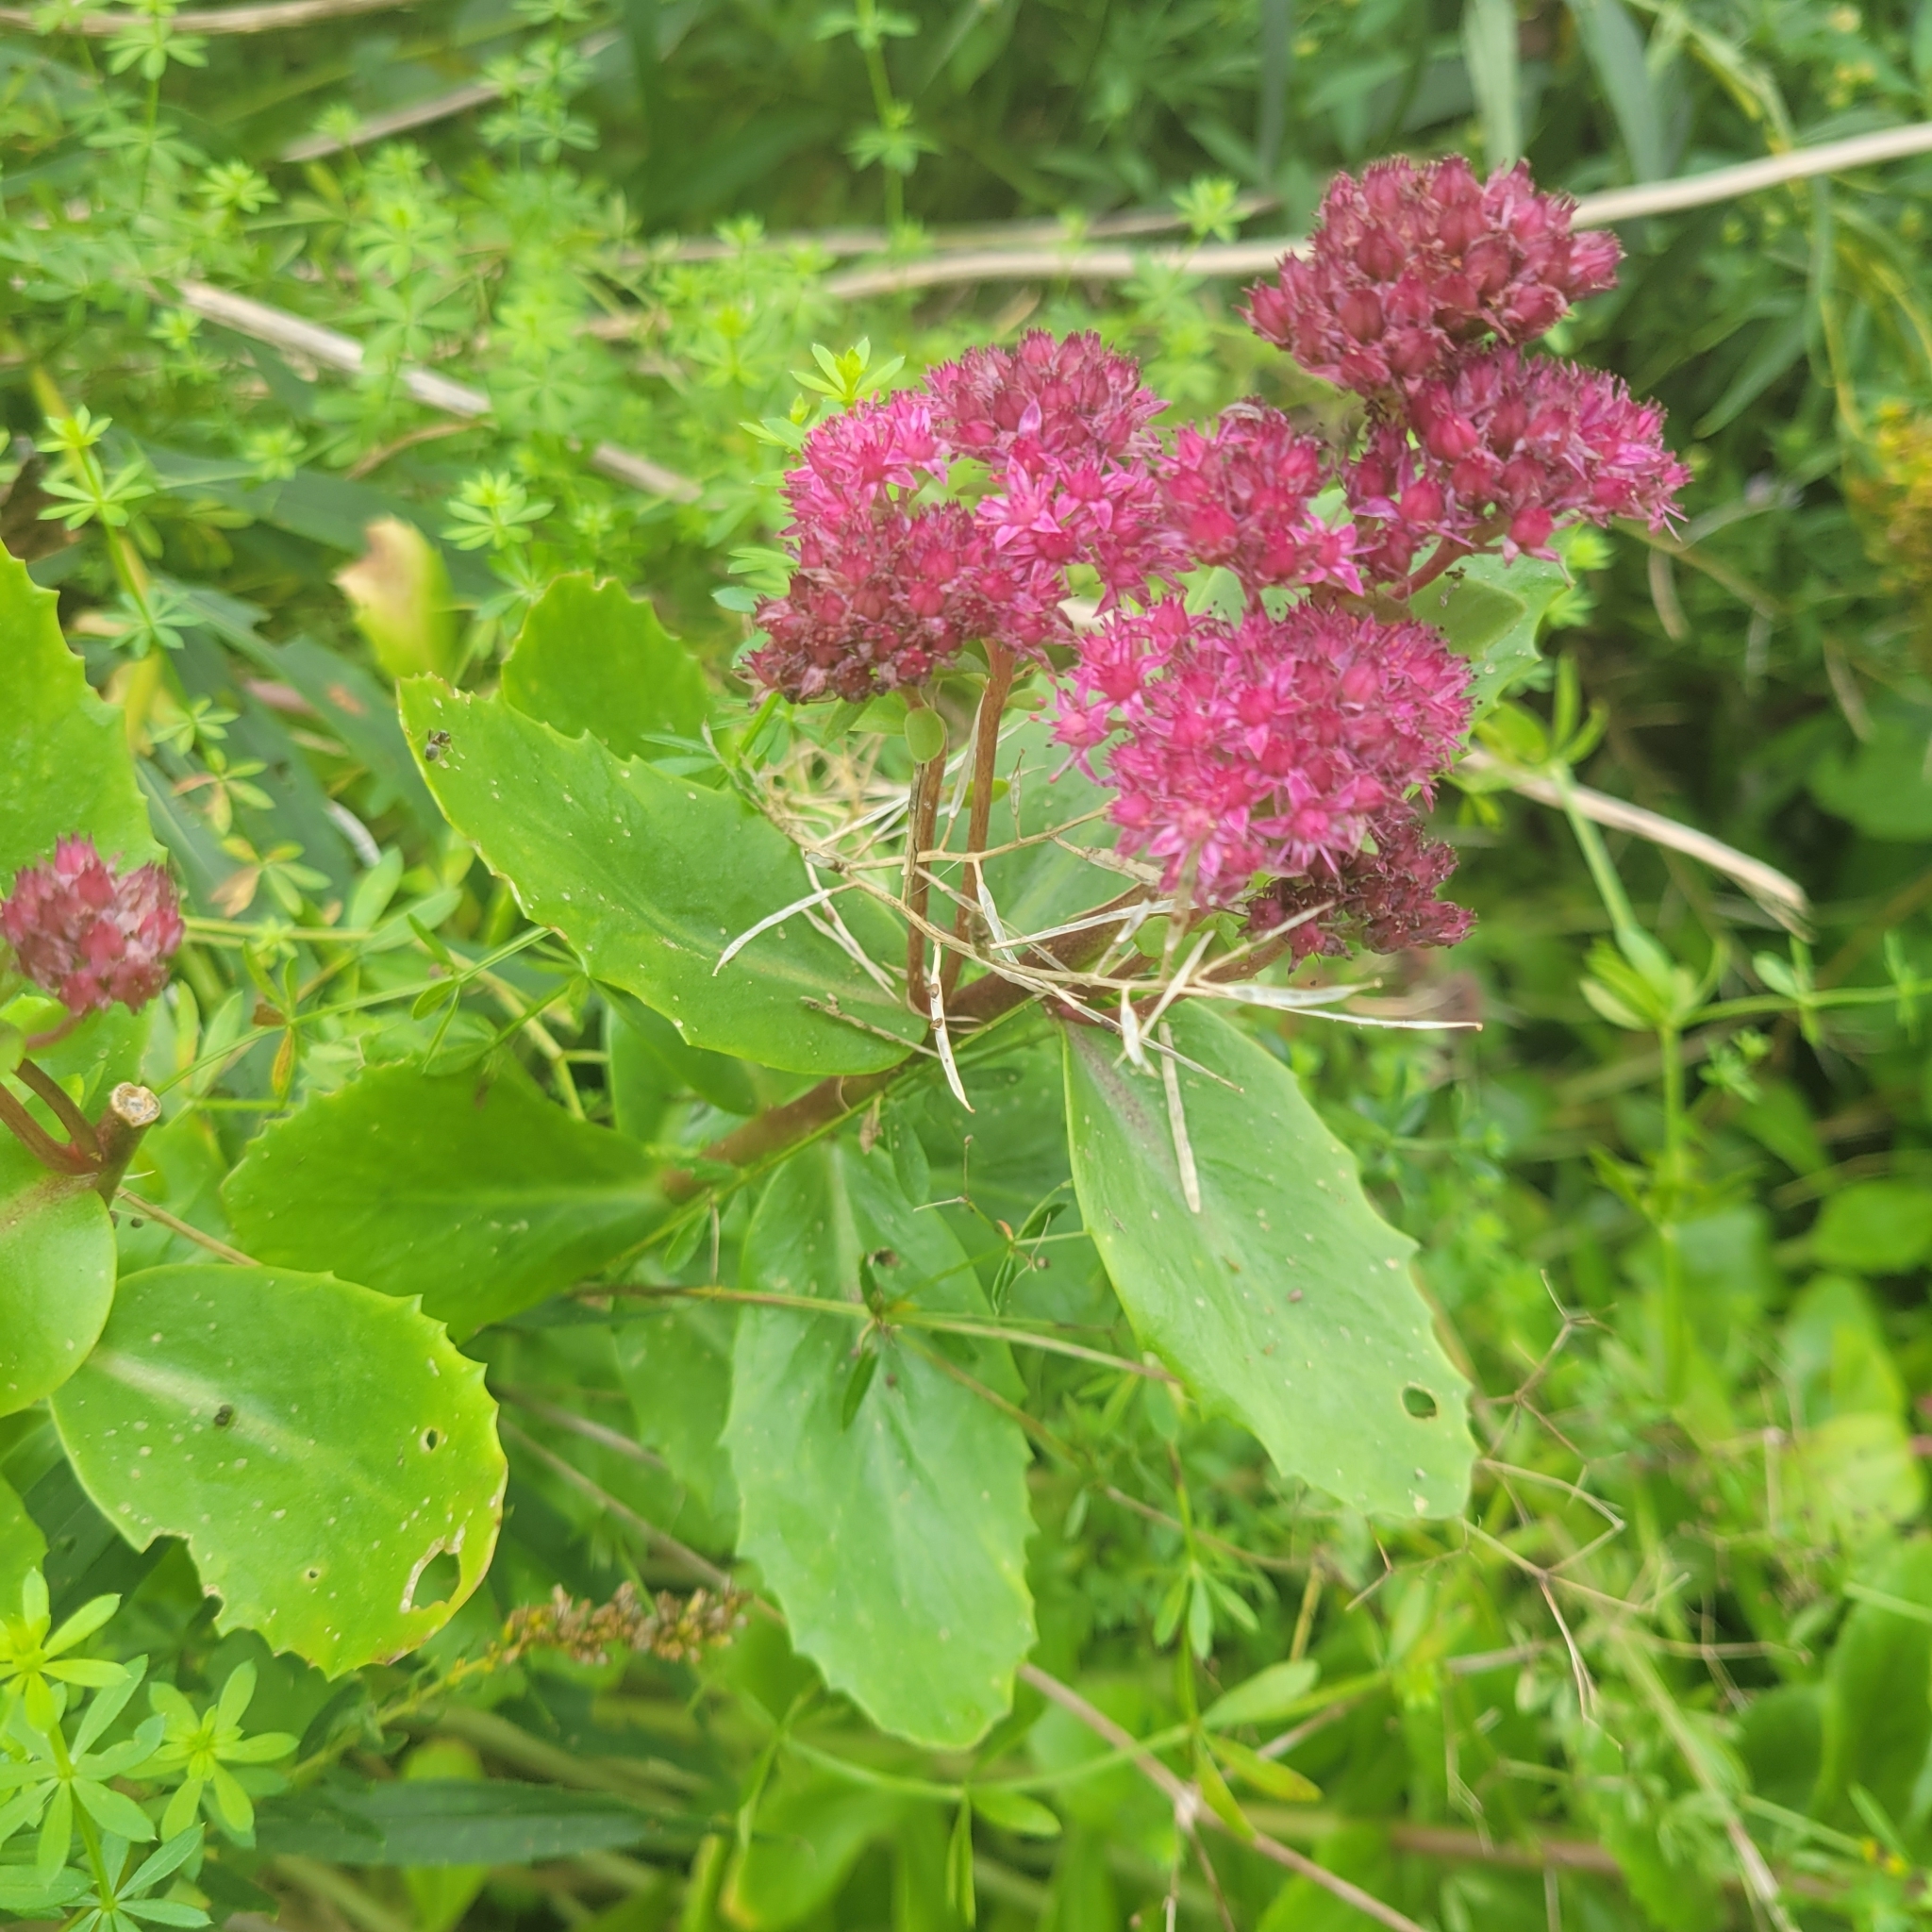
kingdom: Plantae
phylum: Tracheophyta
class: Magnoliopsida
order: Saxifragales
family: Crassulaceae
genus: Hylotelephium
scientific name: Hylotelephium telephium
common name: Live-forever
